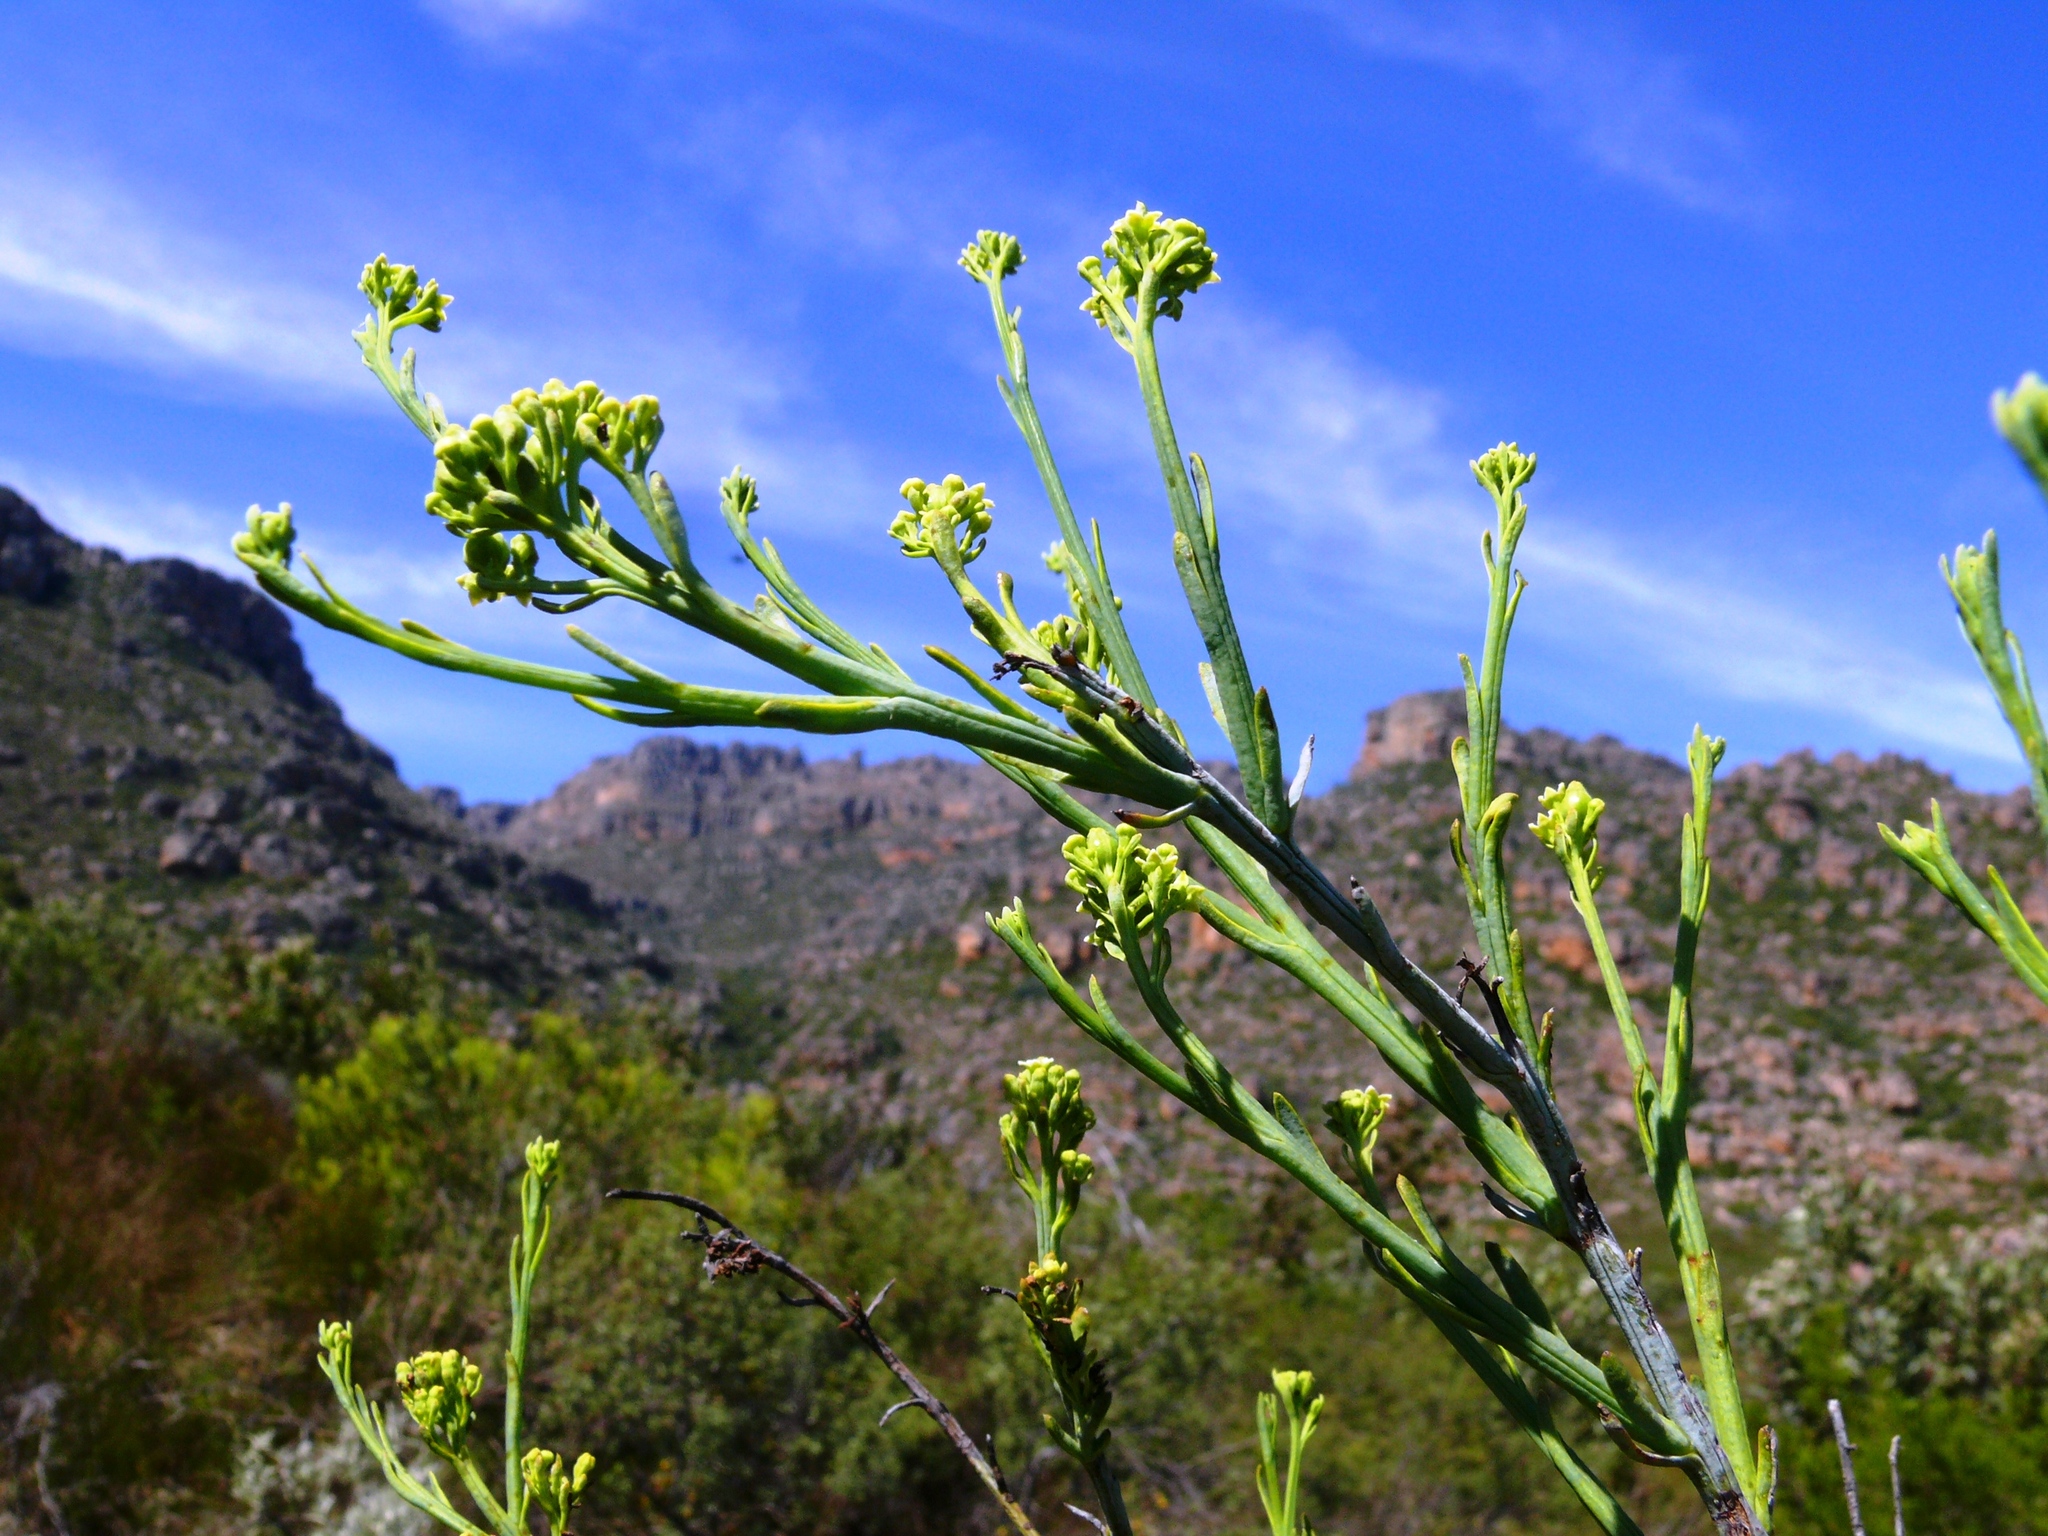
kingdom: Plantae
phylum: Tracheophyta
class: Magnoliopsida
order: Santalales
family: Thesiaceae
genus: Thesium
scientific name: Thesium strictum
